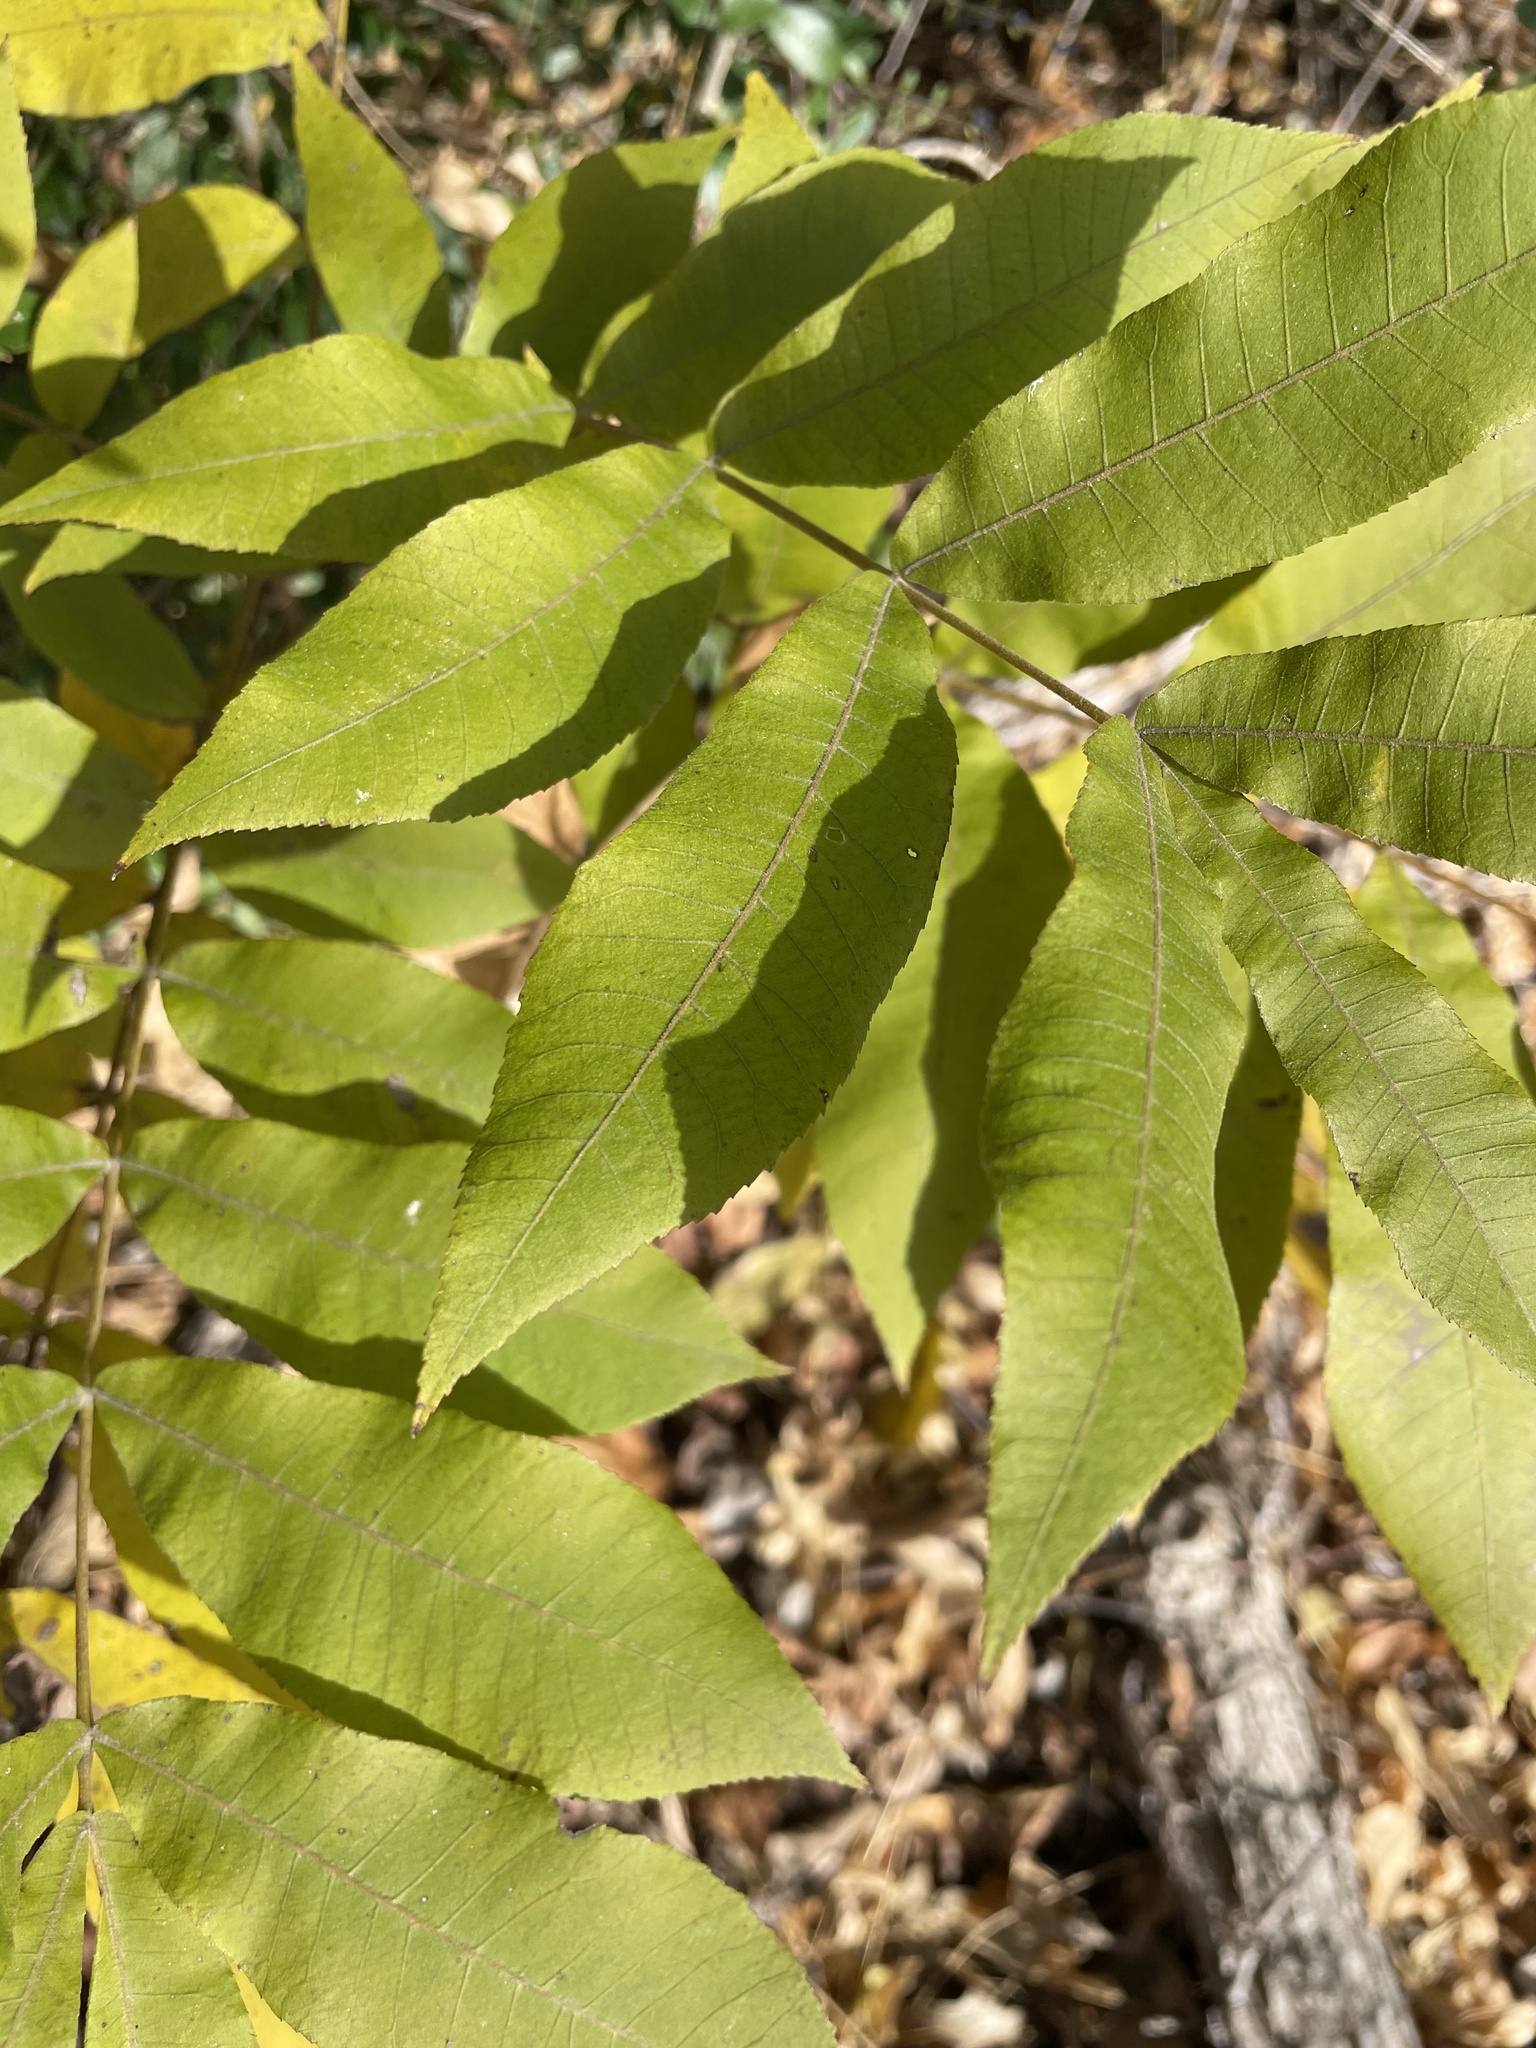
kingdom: Plantae
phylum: Tracheophyta
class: Magnoliopsida
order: Fagales
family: Juglandaceae
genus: Carya
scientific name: Carya illinoinensis
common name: Pecan
